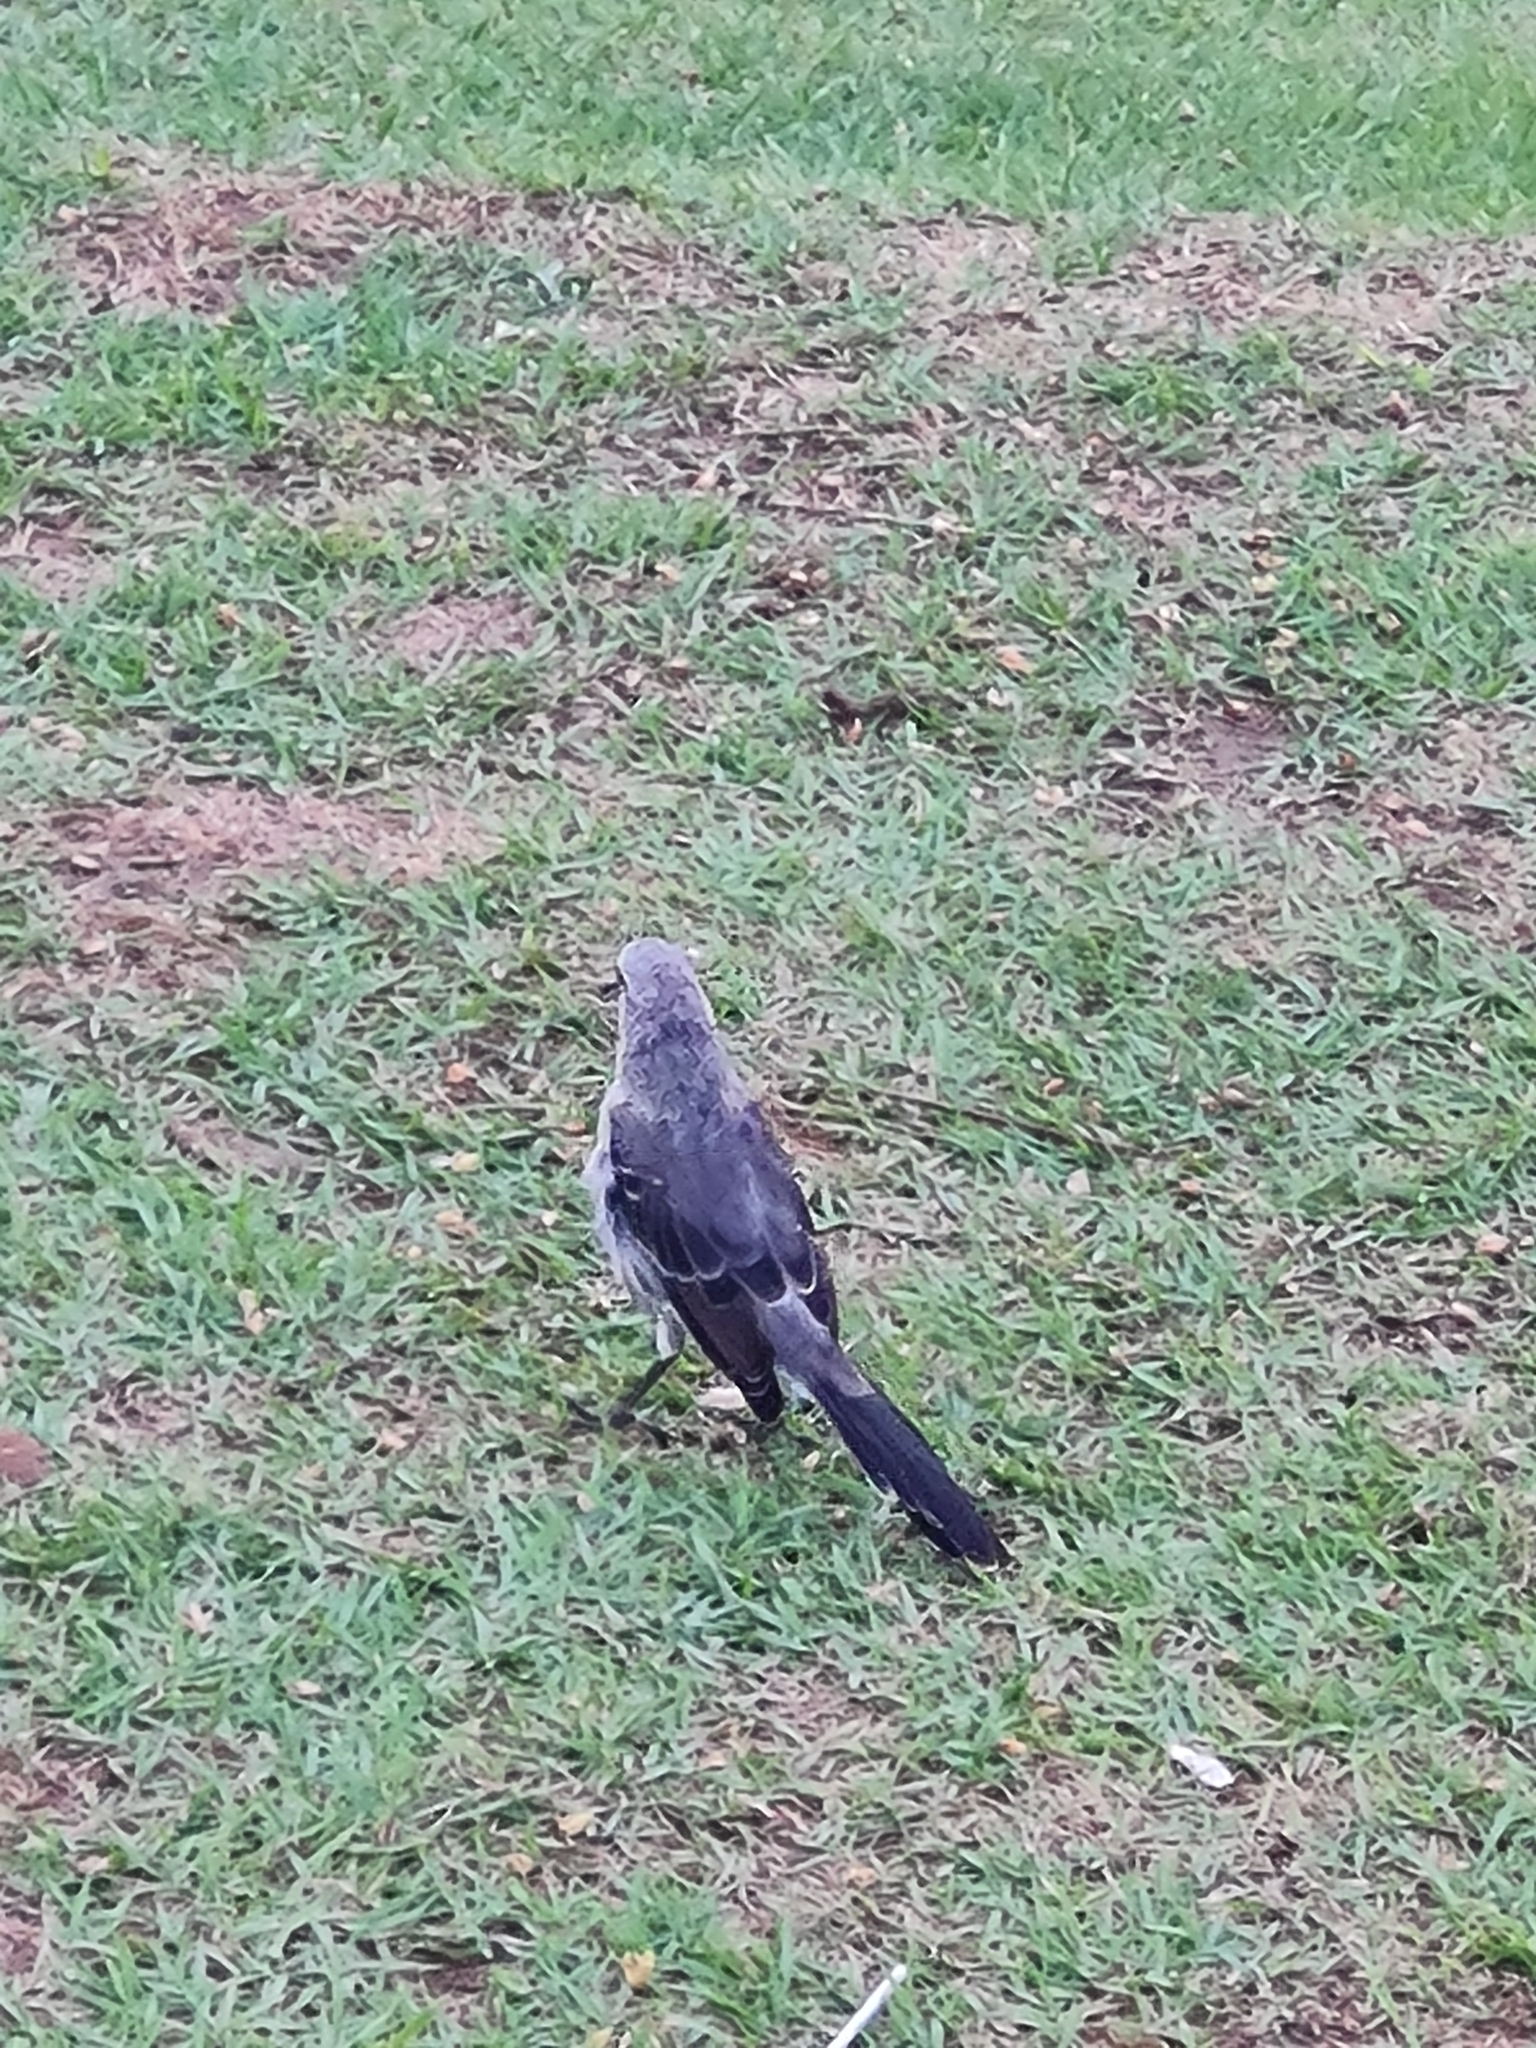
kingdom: Animalia
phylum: Chordata
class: Aves
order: Passeriformes
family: Mimidae
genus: Mimus
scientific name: Mimus gilvus
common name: Tropical mockingbird
